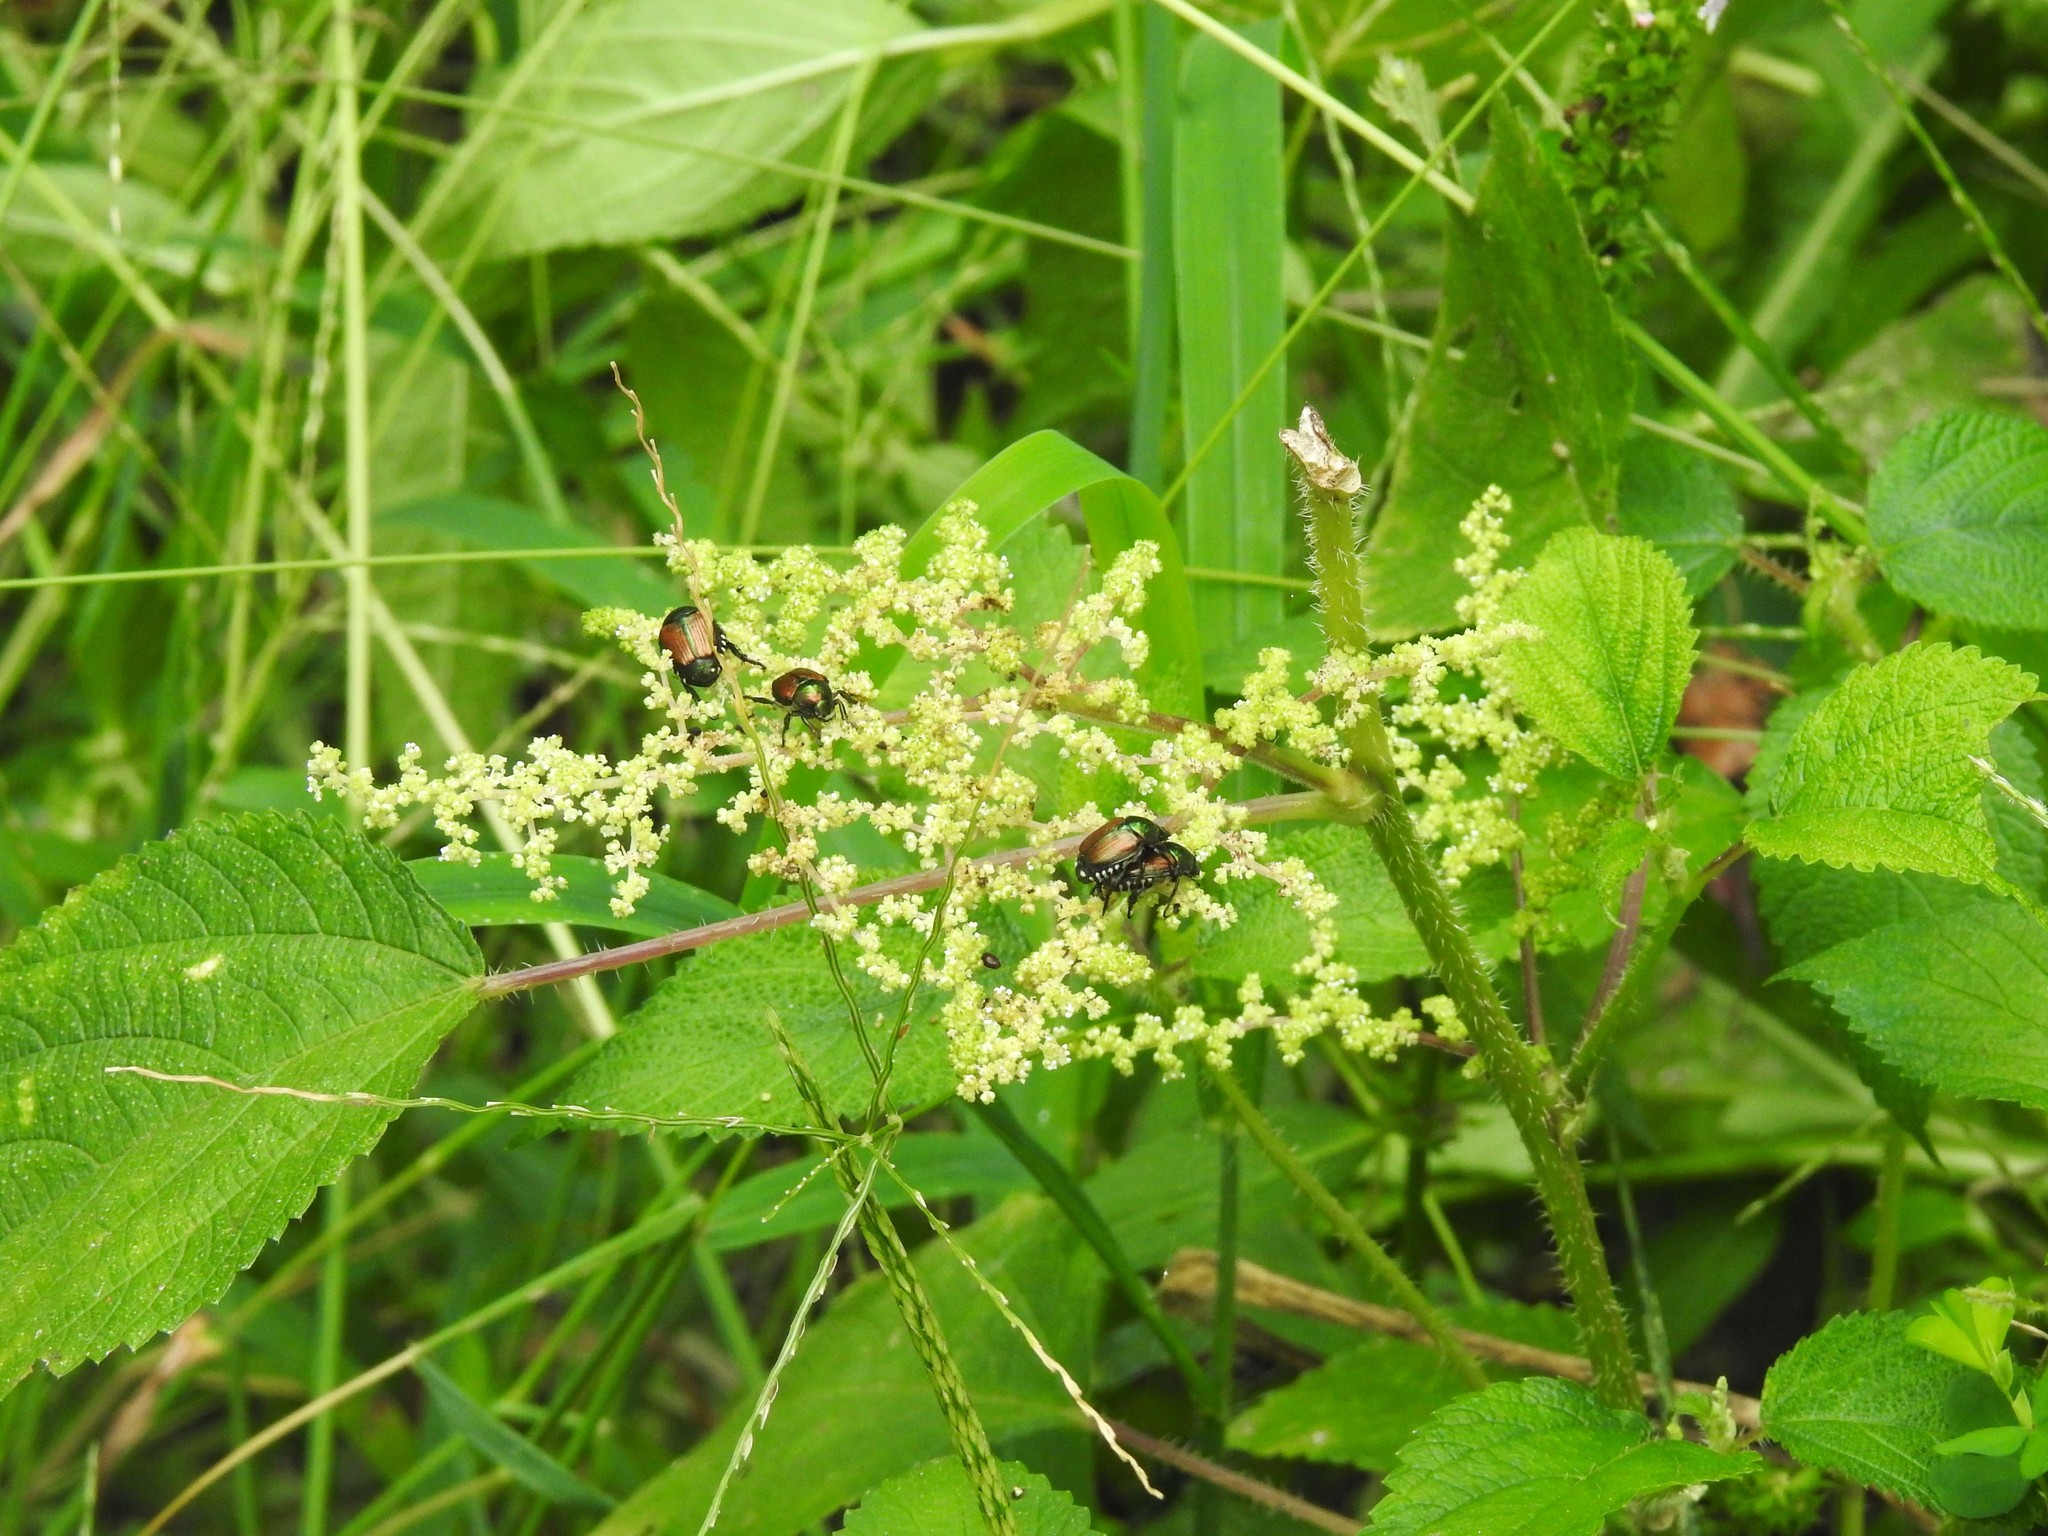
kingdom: Plantae
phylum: Tracheophyta
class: Magnoliopsida
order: Rosales
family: Urticaceae
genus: Laportea
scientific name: Laportea canadensis
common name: Canada nettle
